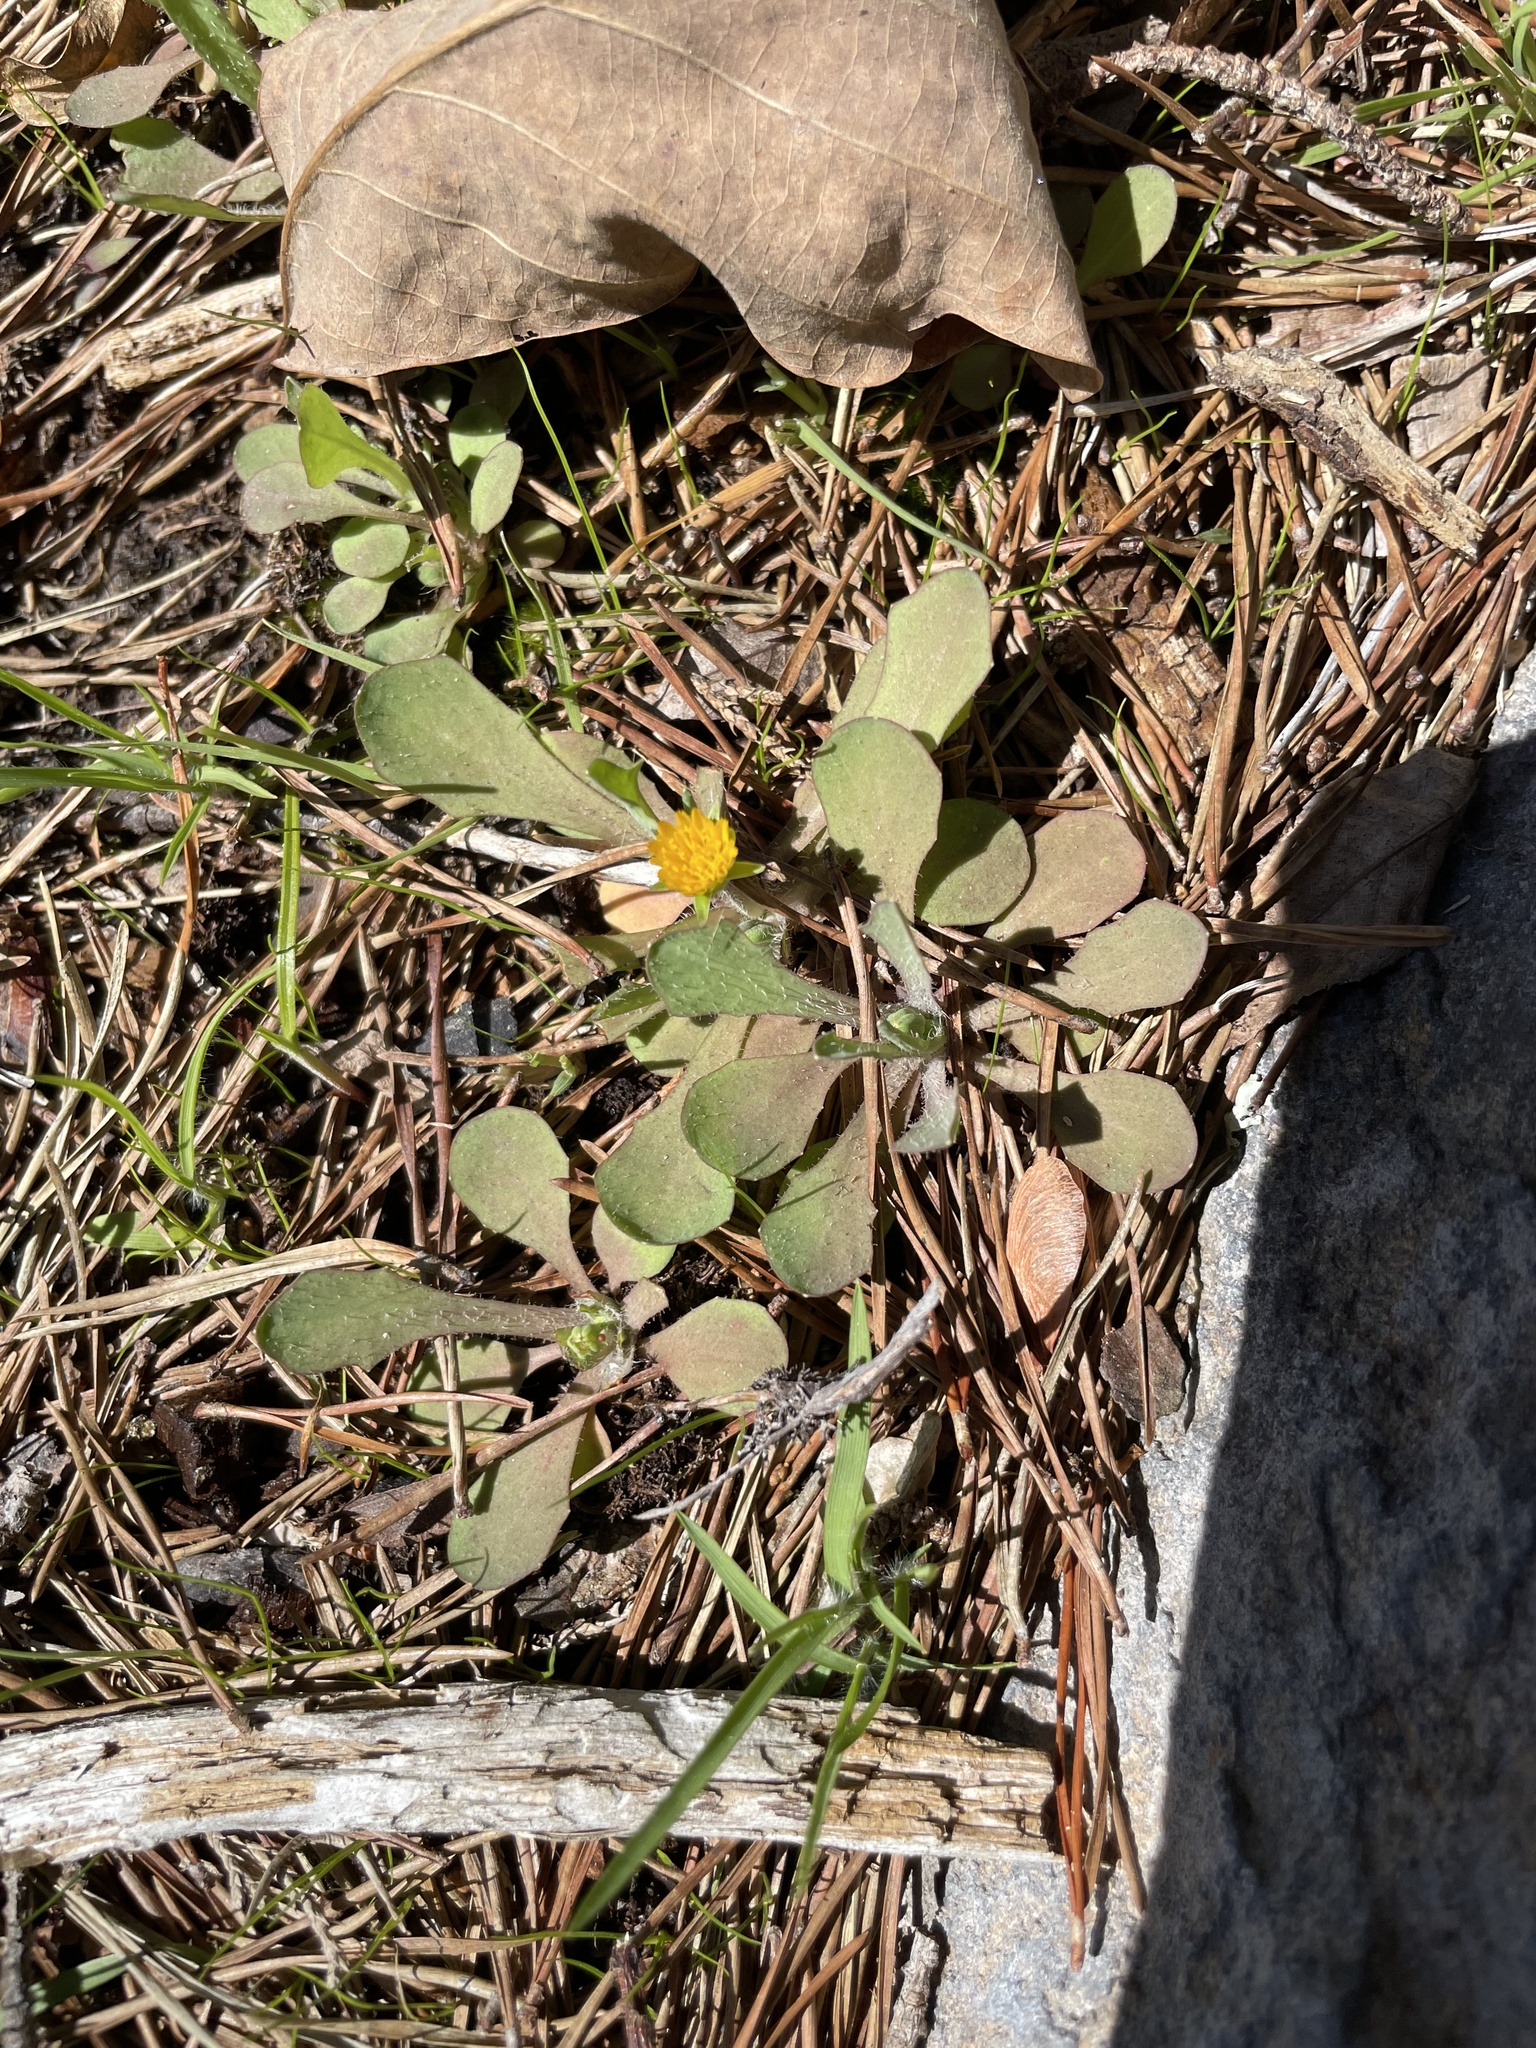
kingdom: Plantae
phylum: Tracheophyta
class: Magnoliopsida
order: Asterales
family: Asteraceae
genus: Krigia
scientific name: Krigia virginica
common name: Virginia dwarf-dandelion
